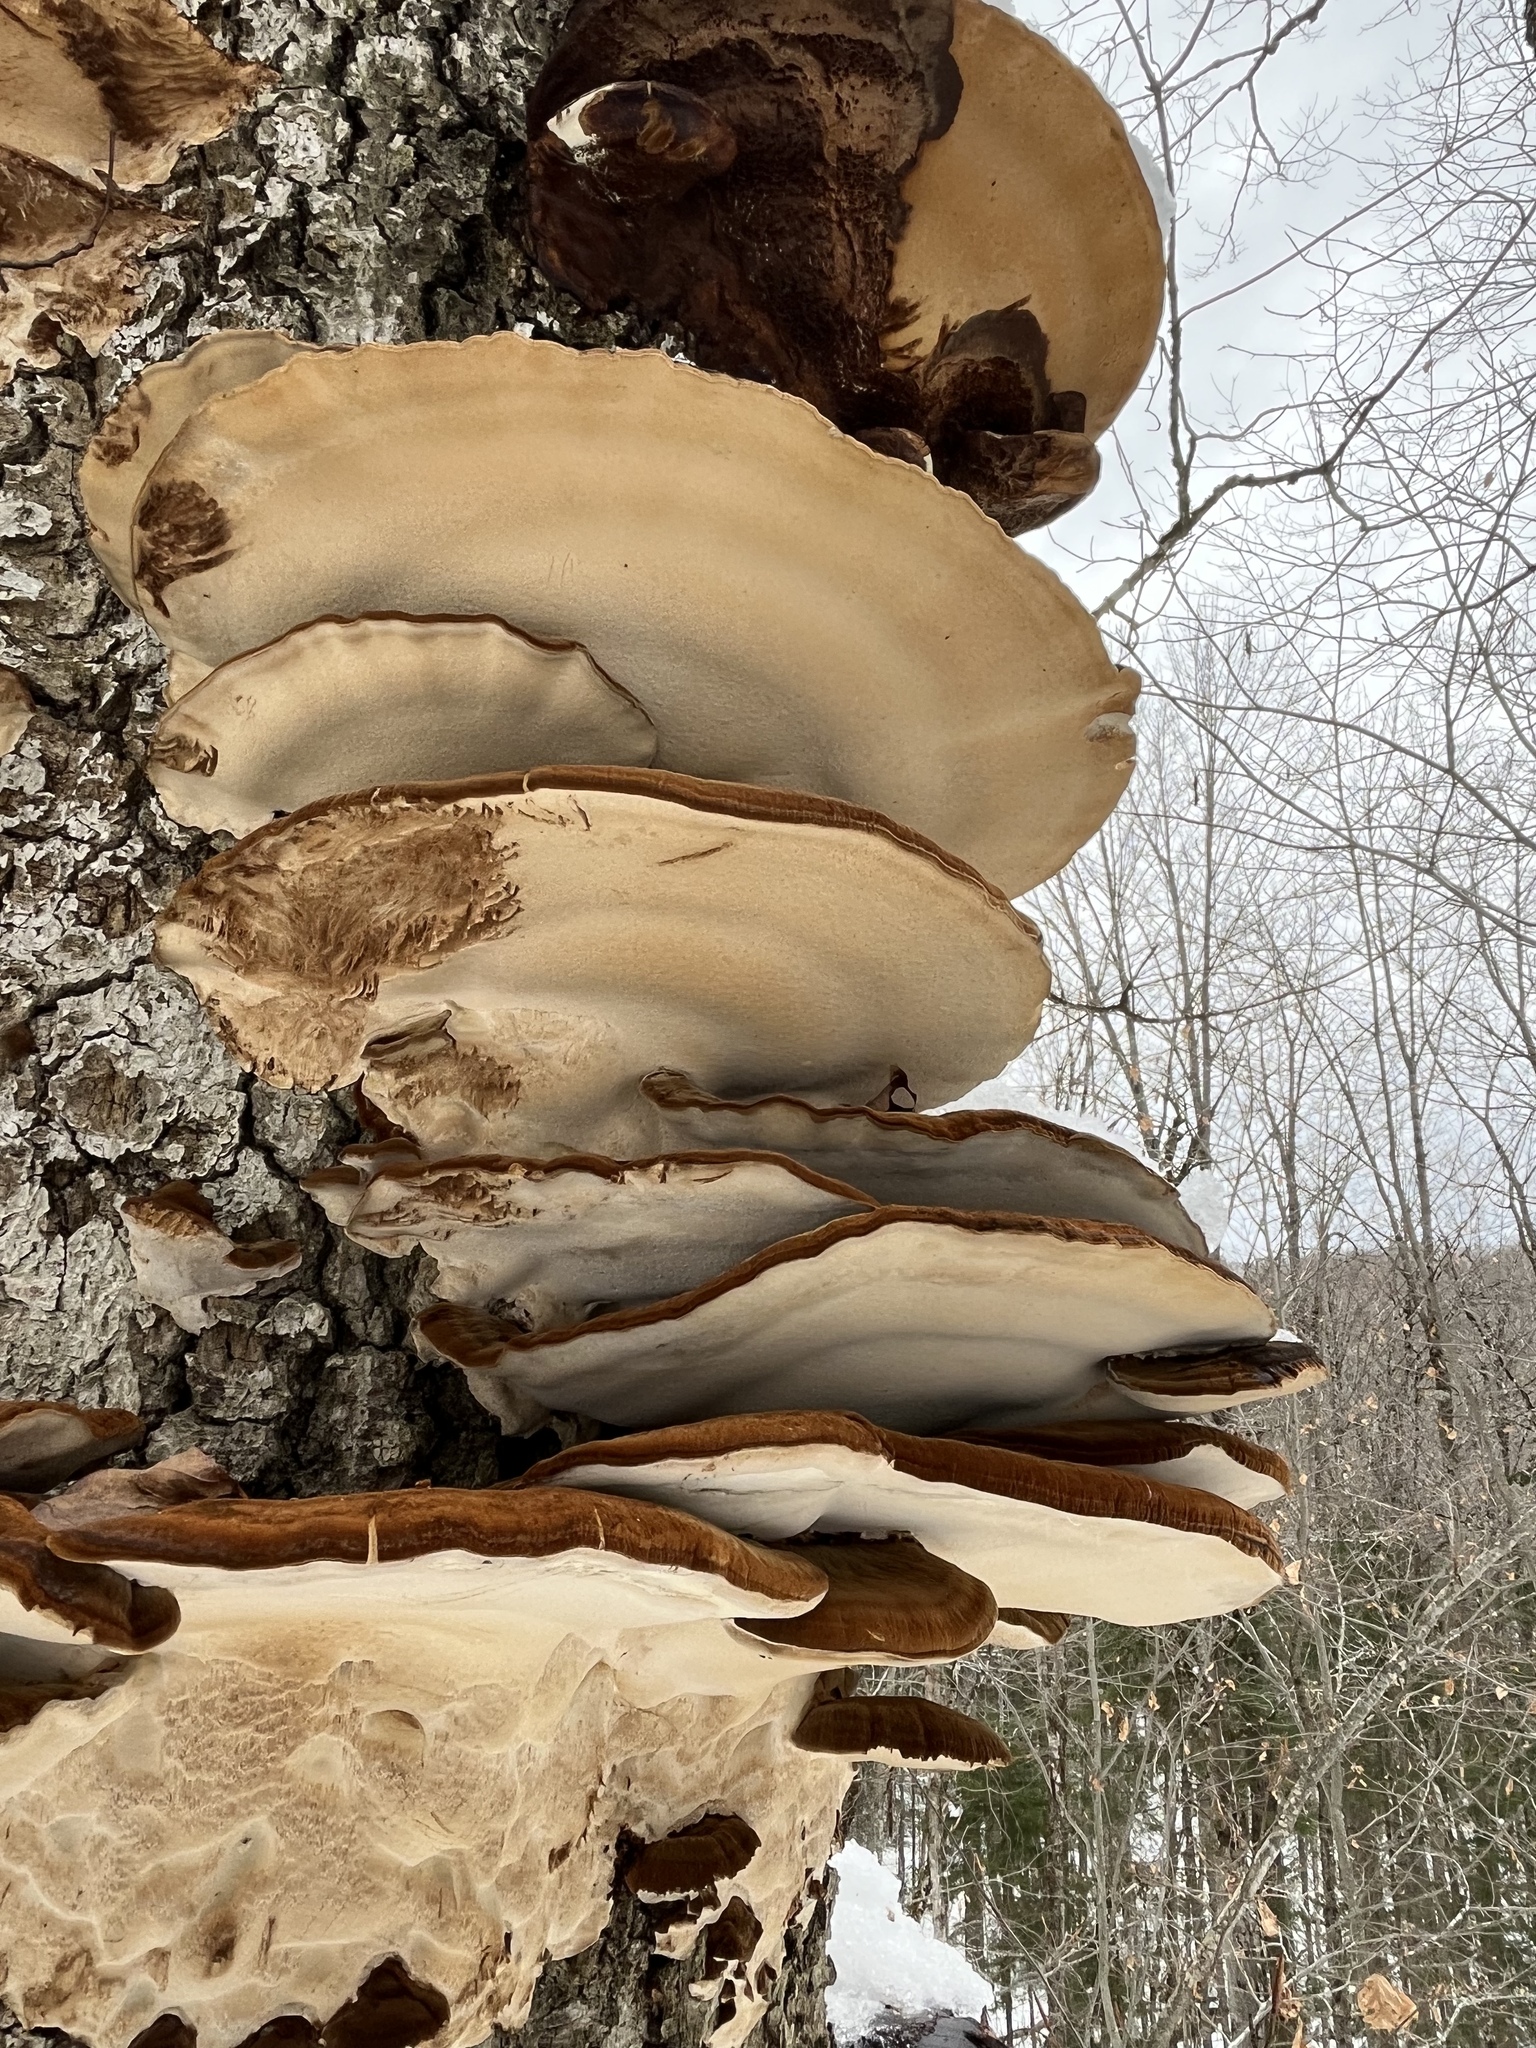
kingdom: Fungi
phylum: Basidiomycota
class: Agaricomycetes
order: Polyporales
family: Ischnodermataceae
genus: Ischnoderma
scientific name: Ischnoderma resinosum
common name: Resinous polypore
